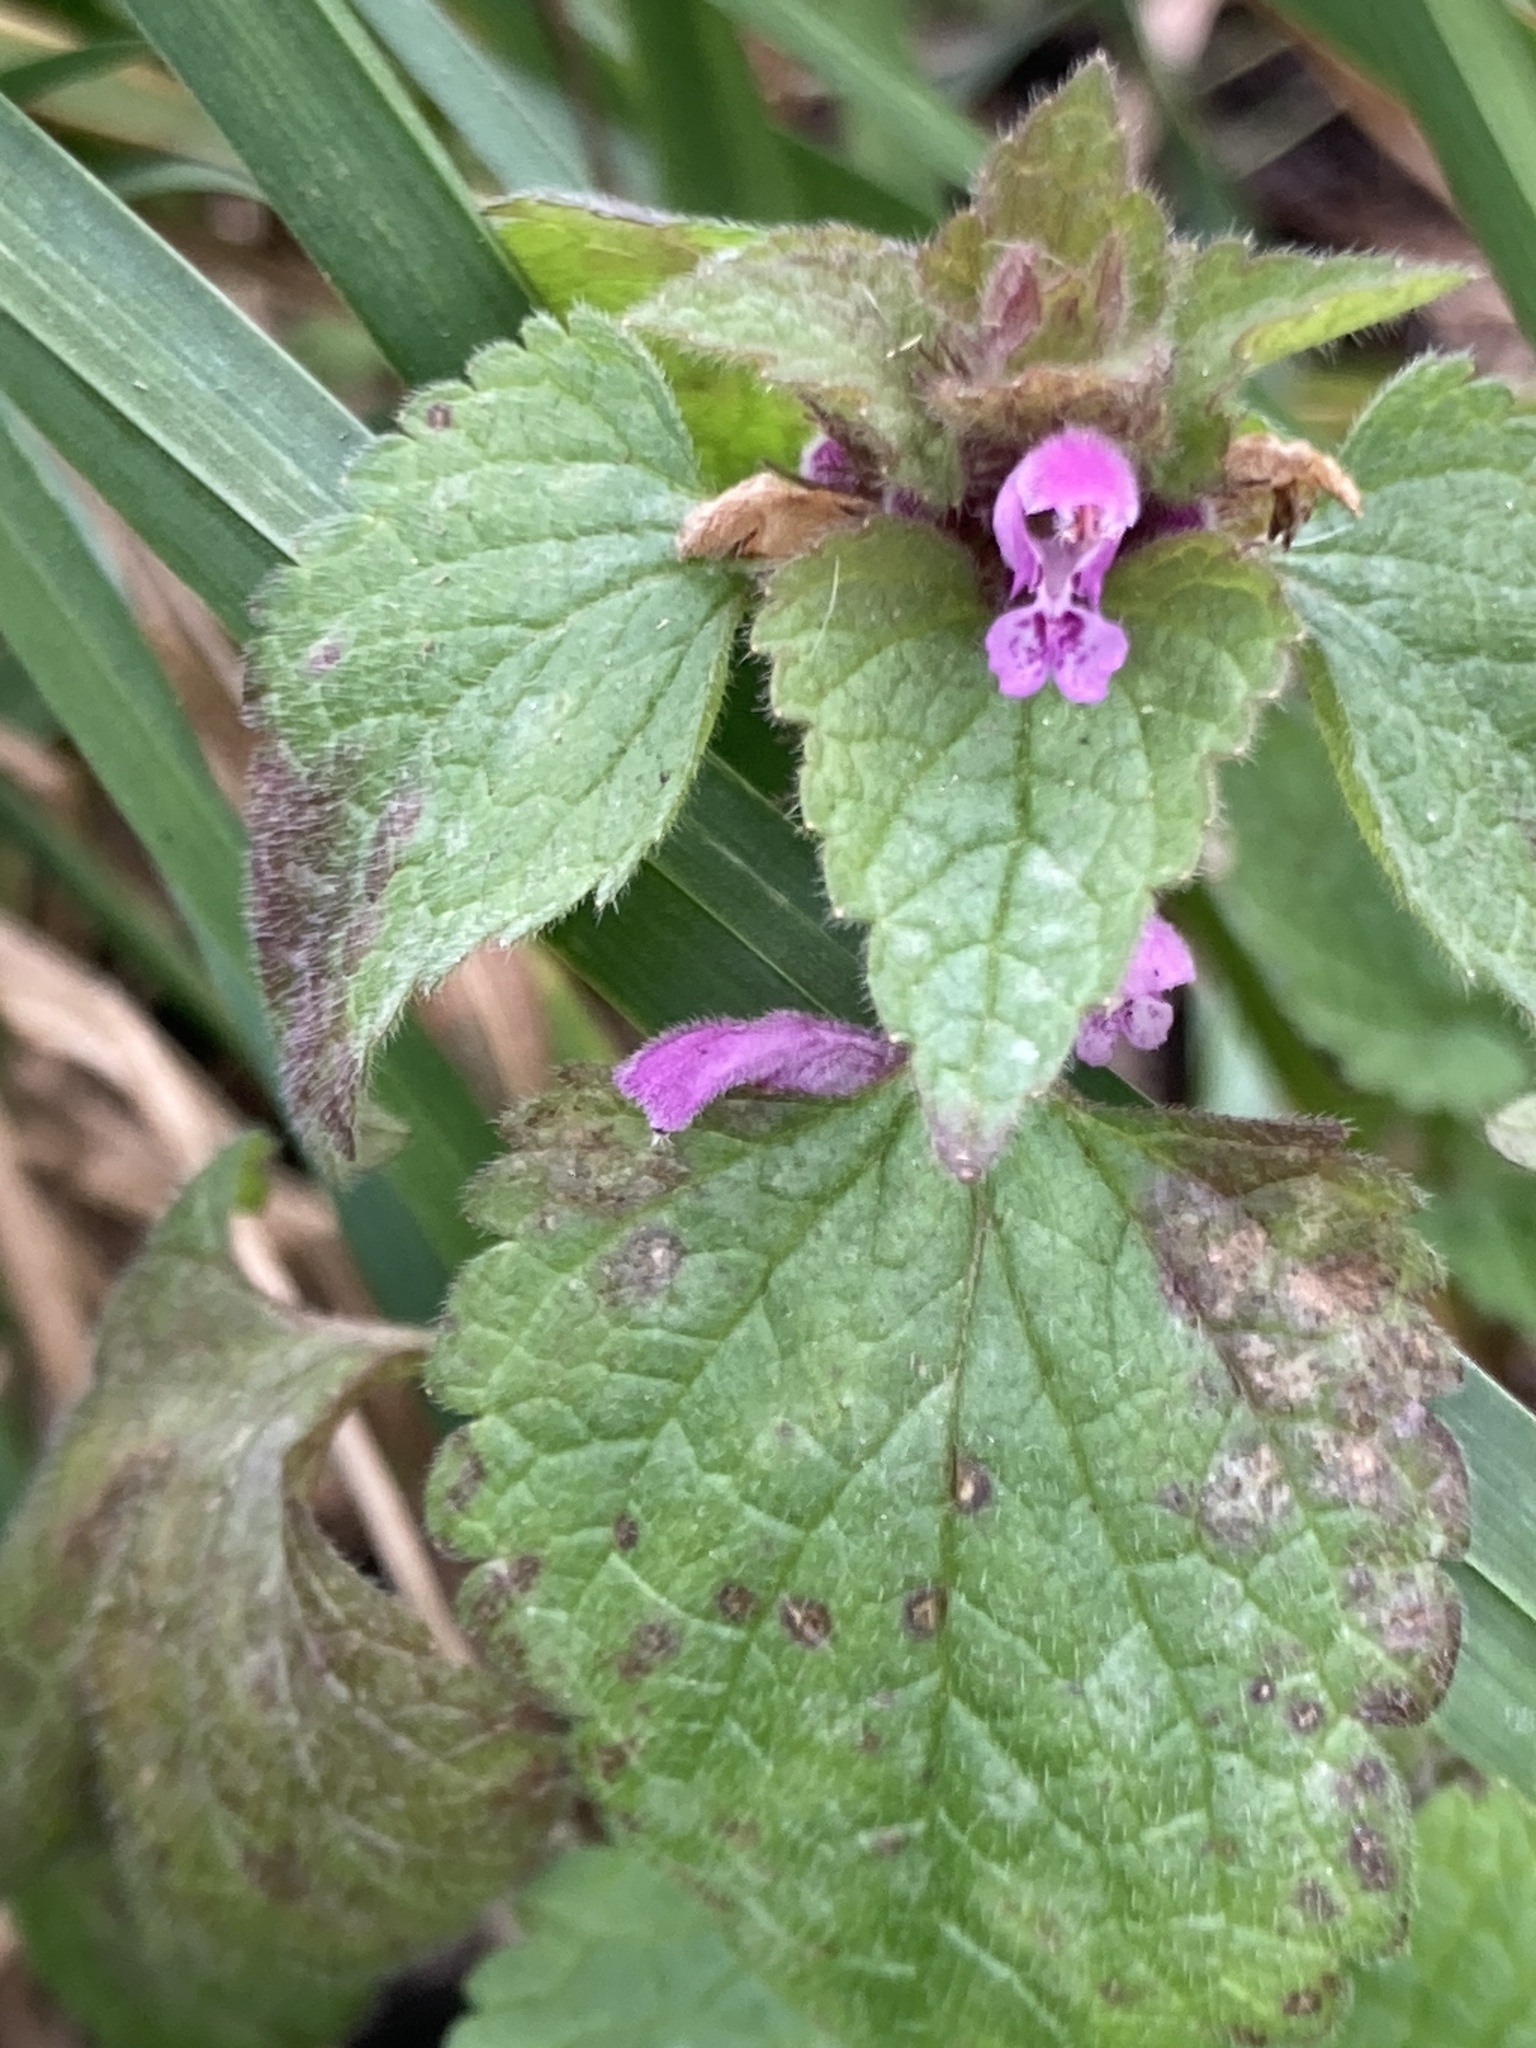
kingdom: Plantae
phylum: Tracheophyta
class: Magnoliopsida
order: Lamiales
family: Lamiaceae
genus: Lamium
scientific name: Lamium purpureum
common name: Red dead-nettle
